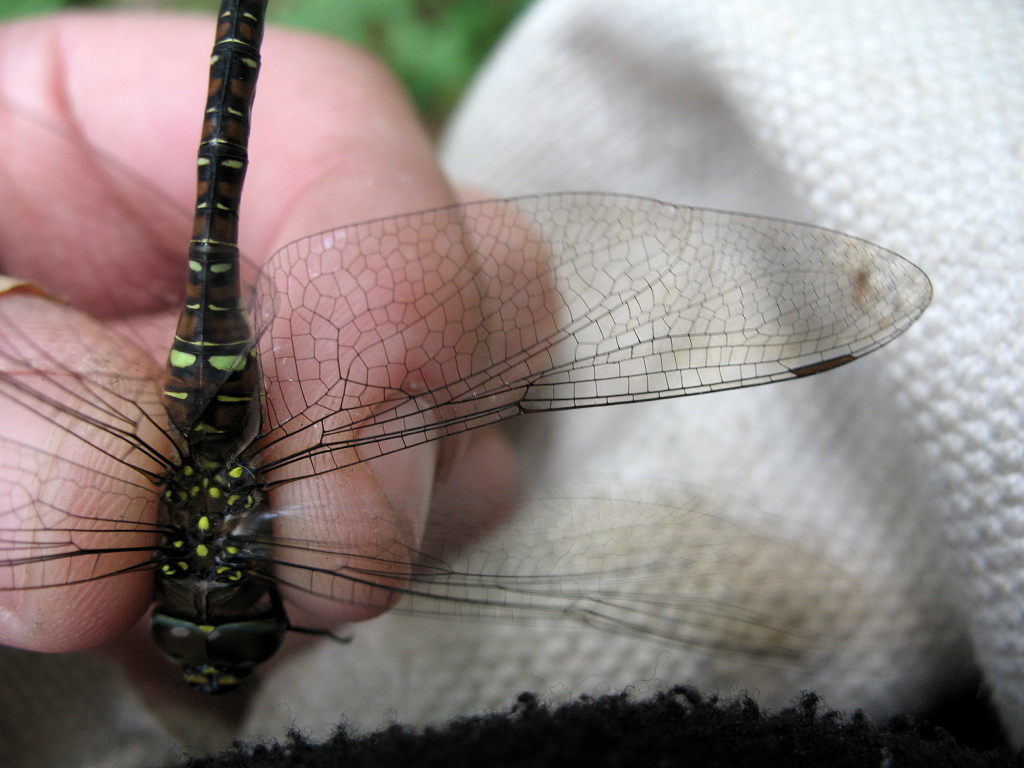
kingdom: Animalia
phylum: Arthropoda
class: Insecta
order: Odonata
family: Aeshnidae
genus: Aeshna
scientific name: Aeshna mixta
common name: Migrant hawker
